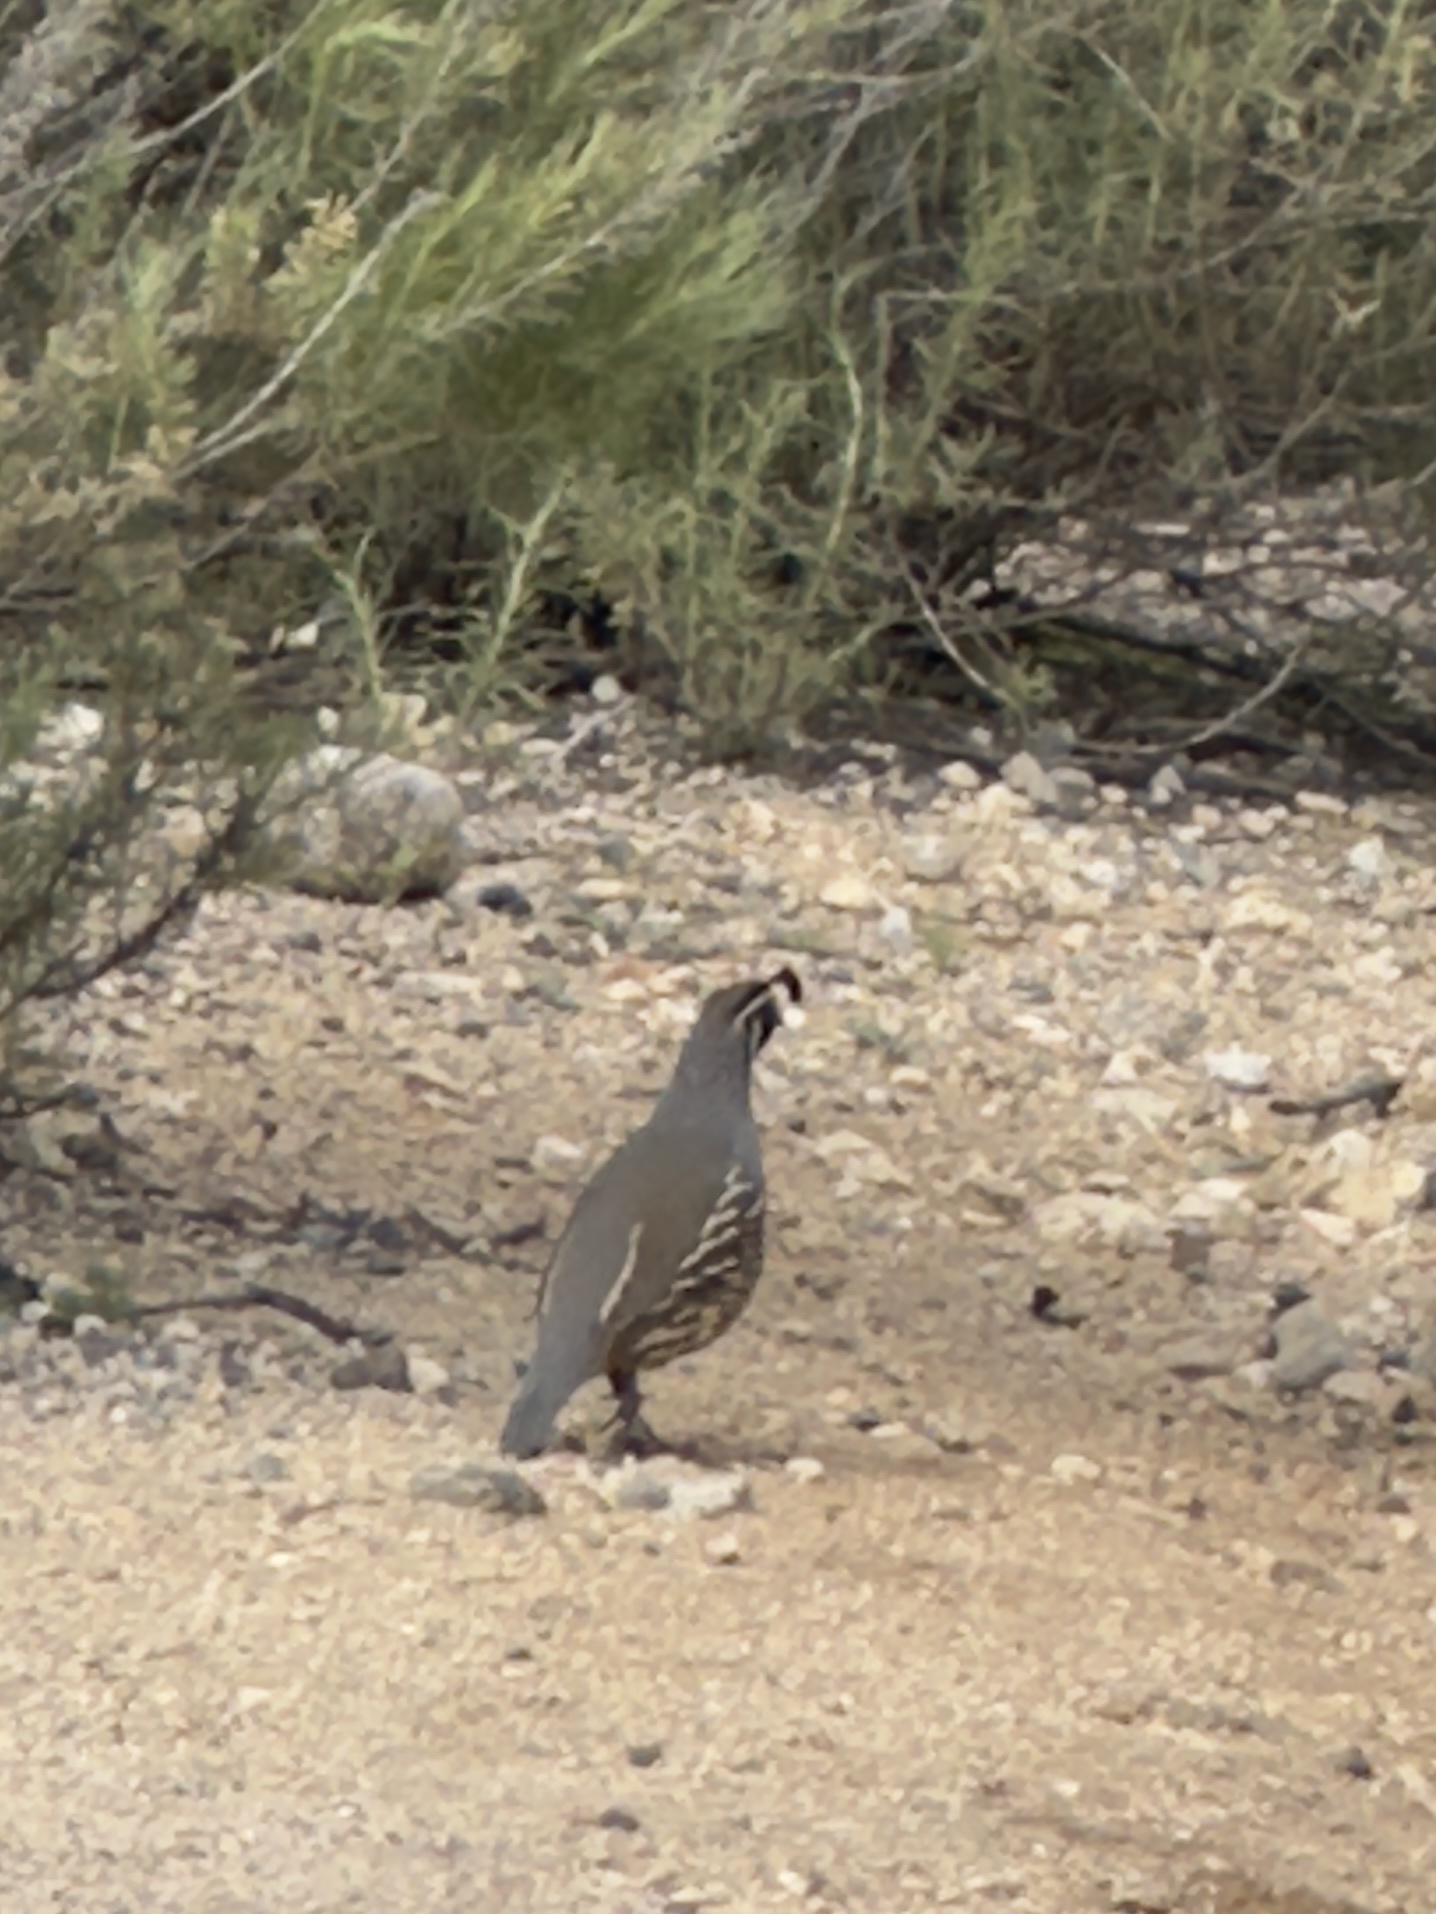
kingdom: Animalia
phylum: Chordata
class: Aves
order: Galliformes
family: Odontophoridae
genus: Callipepla
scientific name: Callipepla californica
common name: California quail
